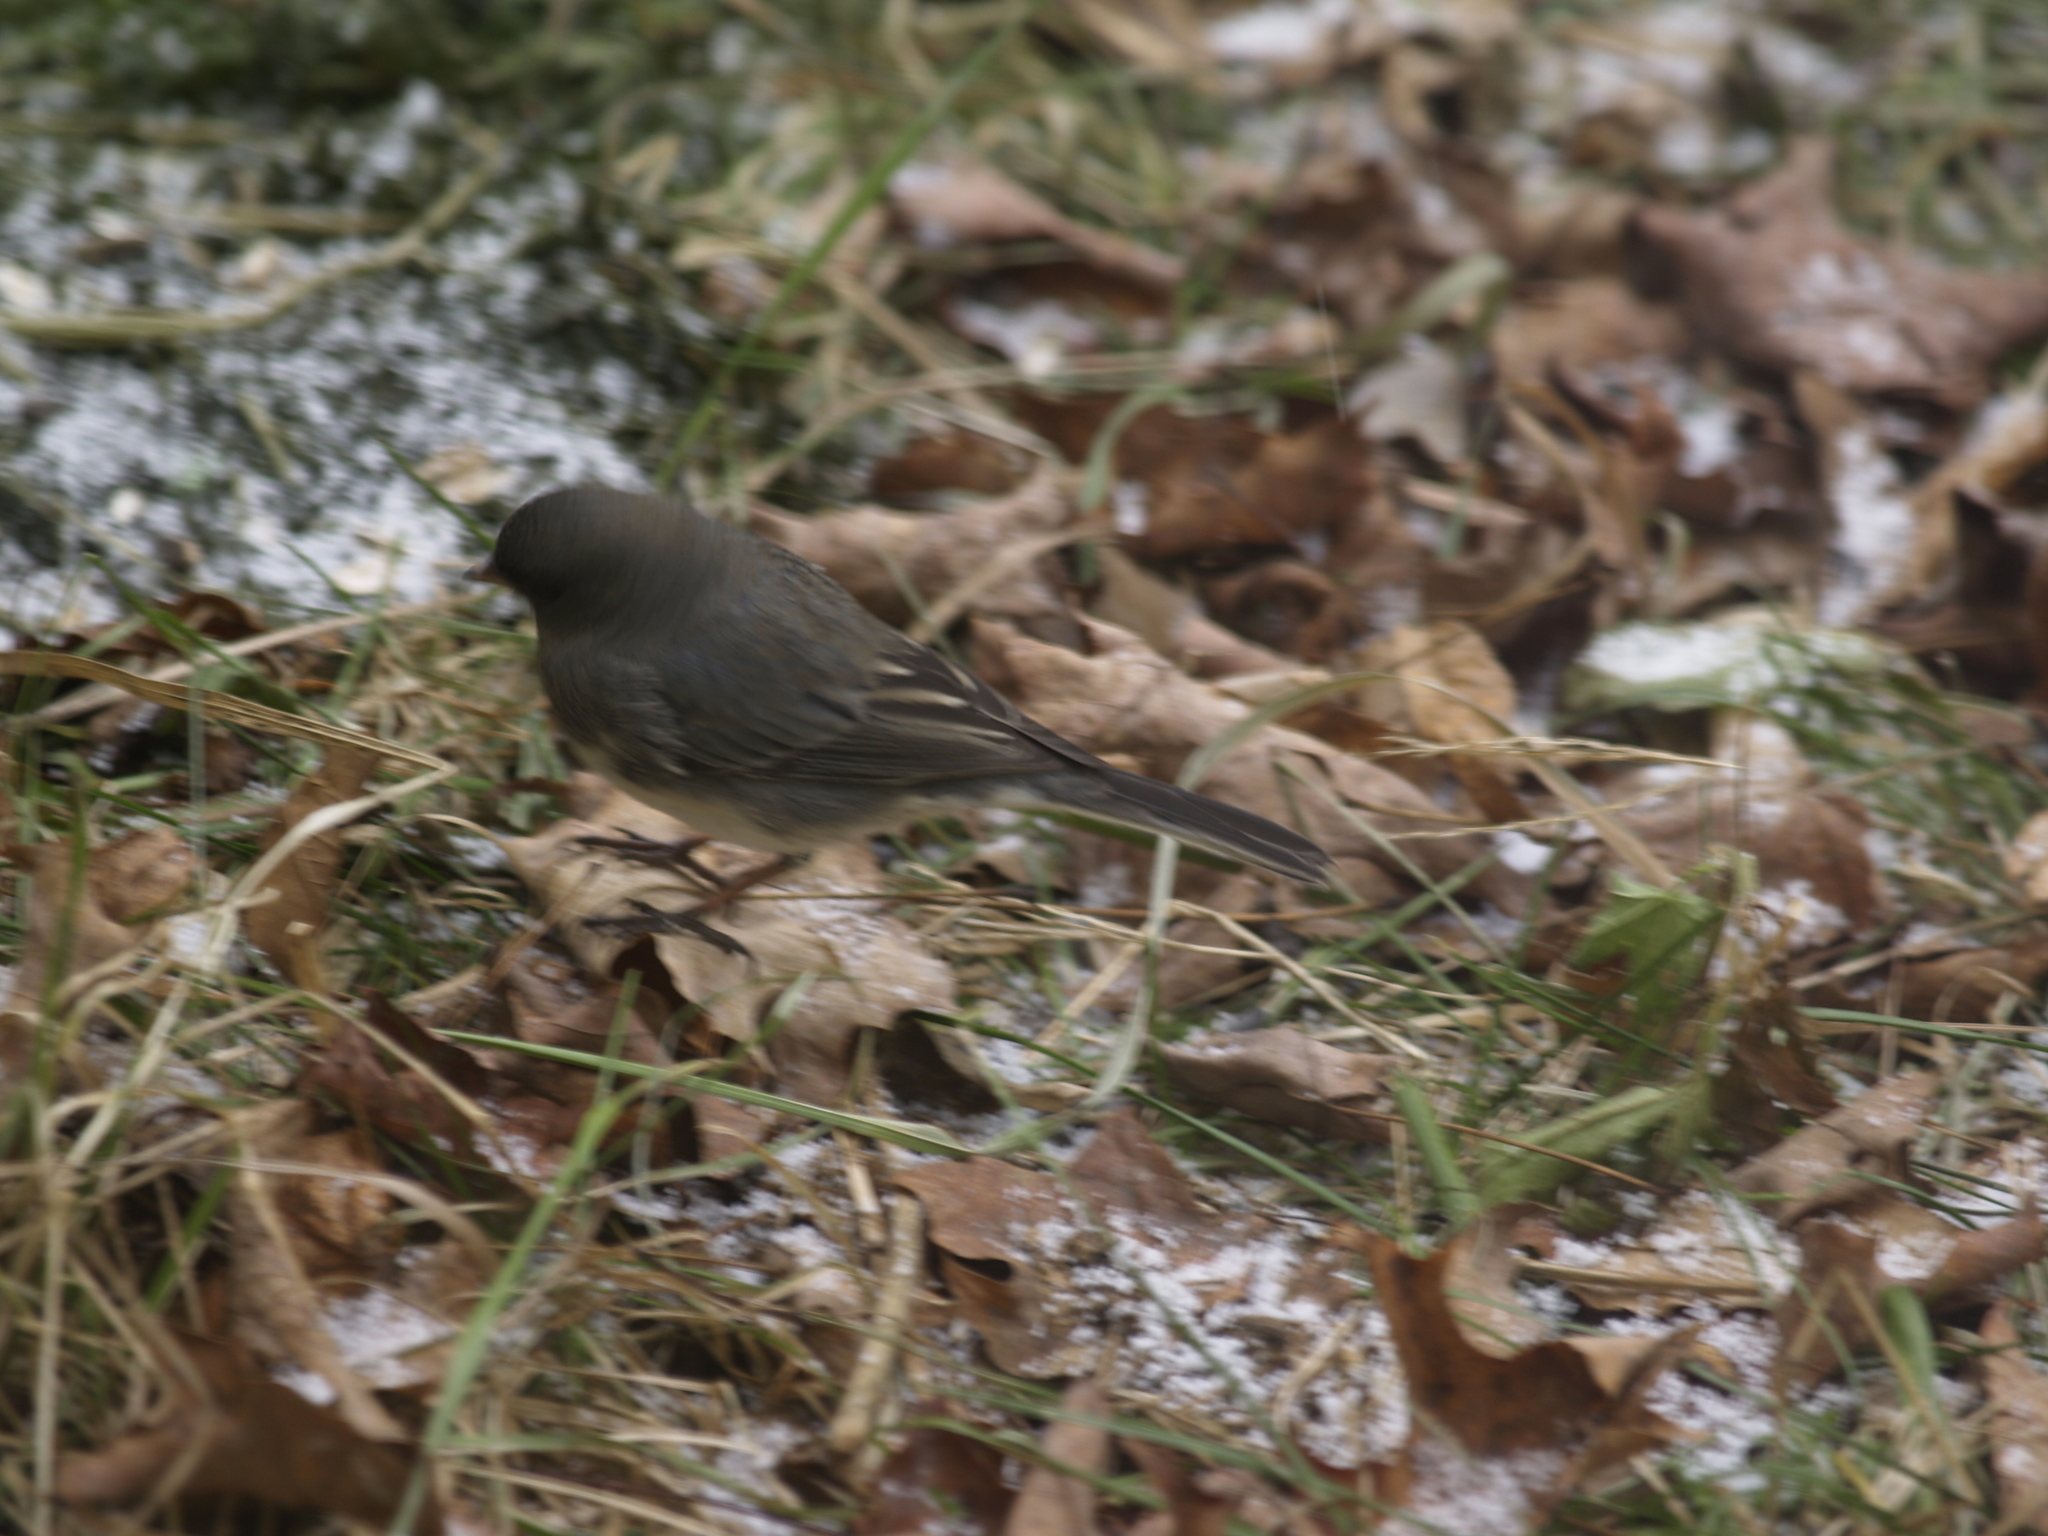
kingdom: Animalia
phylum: Chordata
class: Aves
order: Passeriformes
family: Passerellidae
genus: Junco
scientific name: Junco hyemalis
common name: Dark-eyed junco
